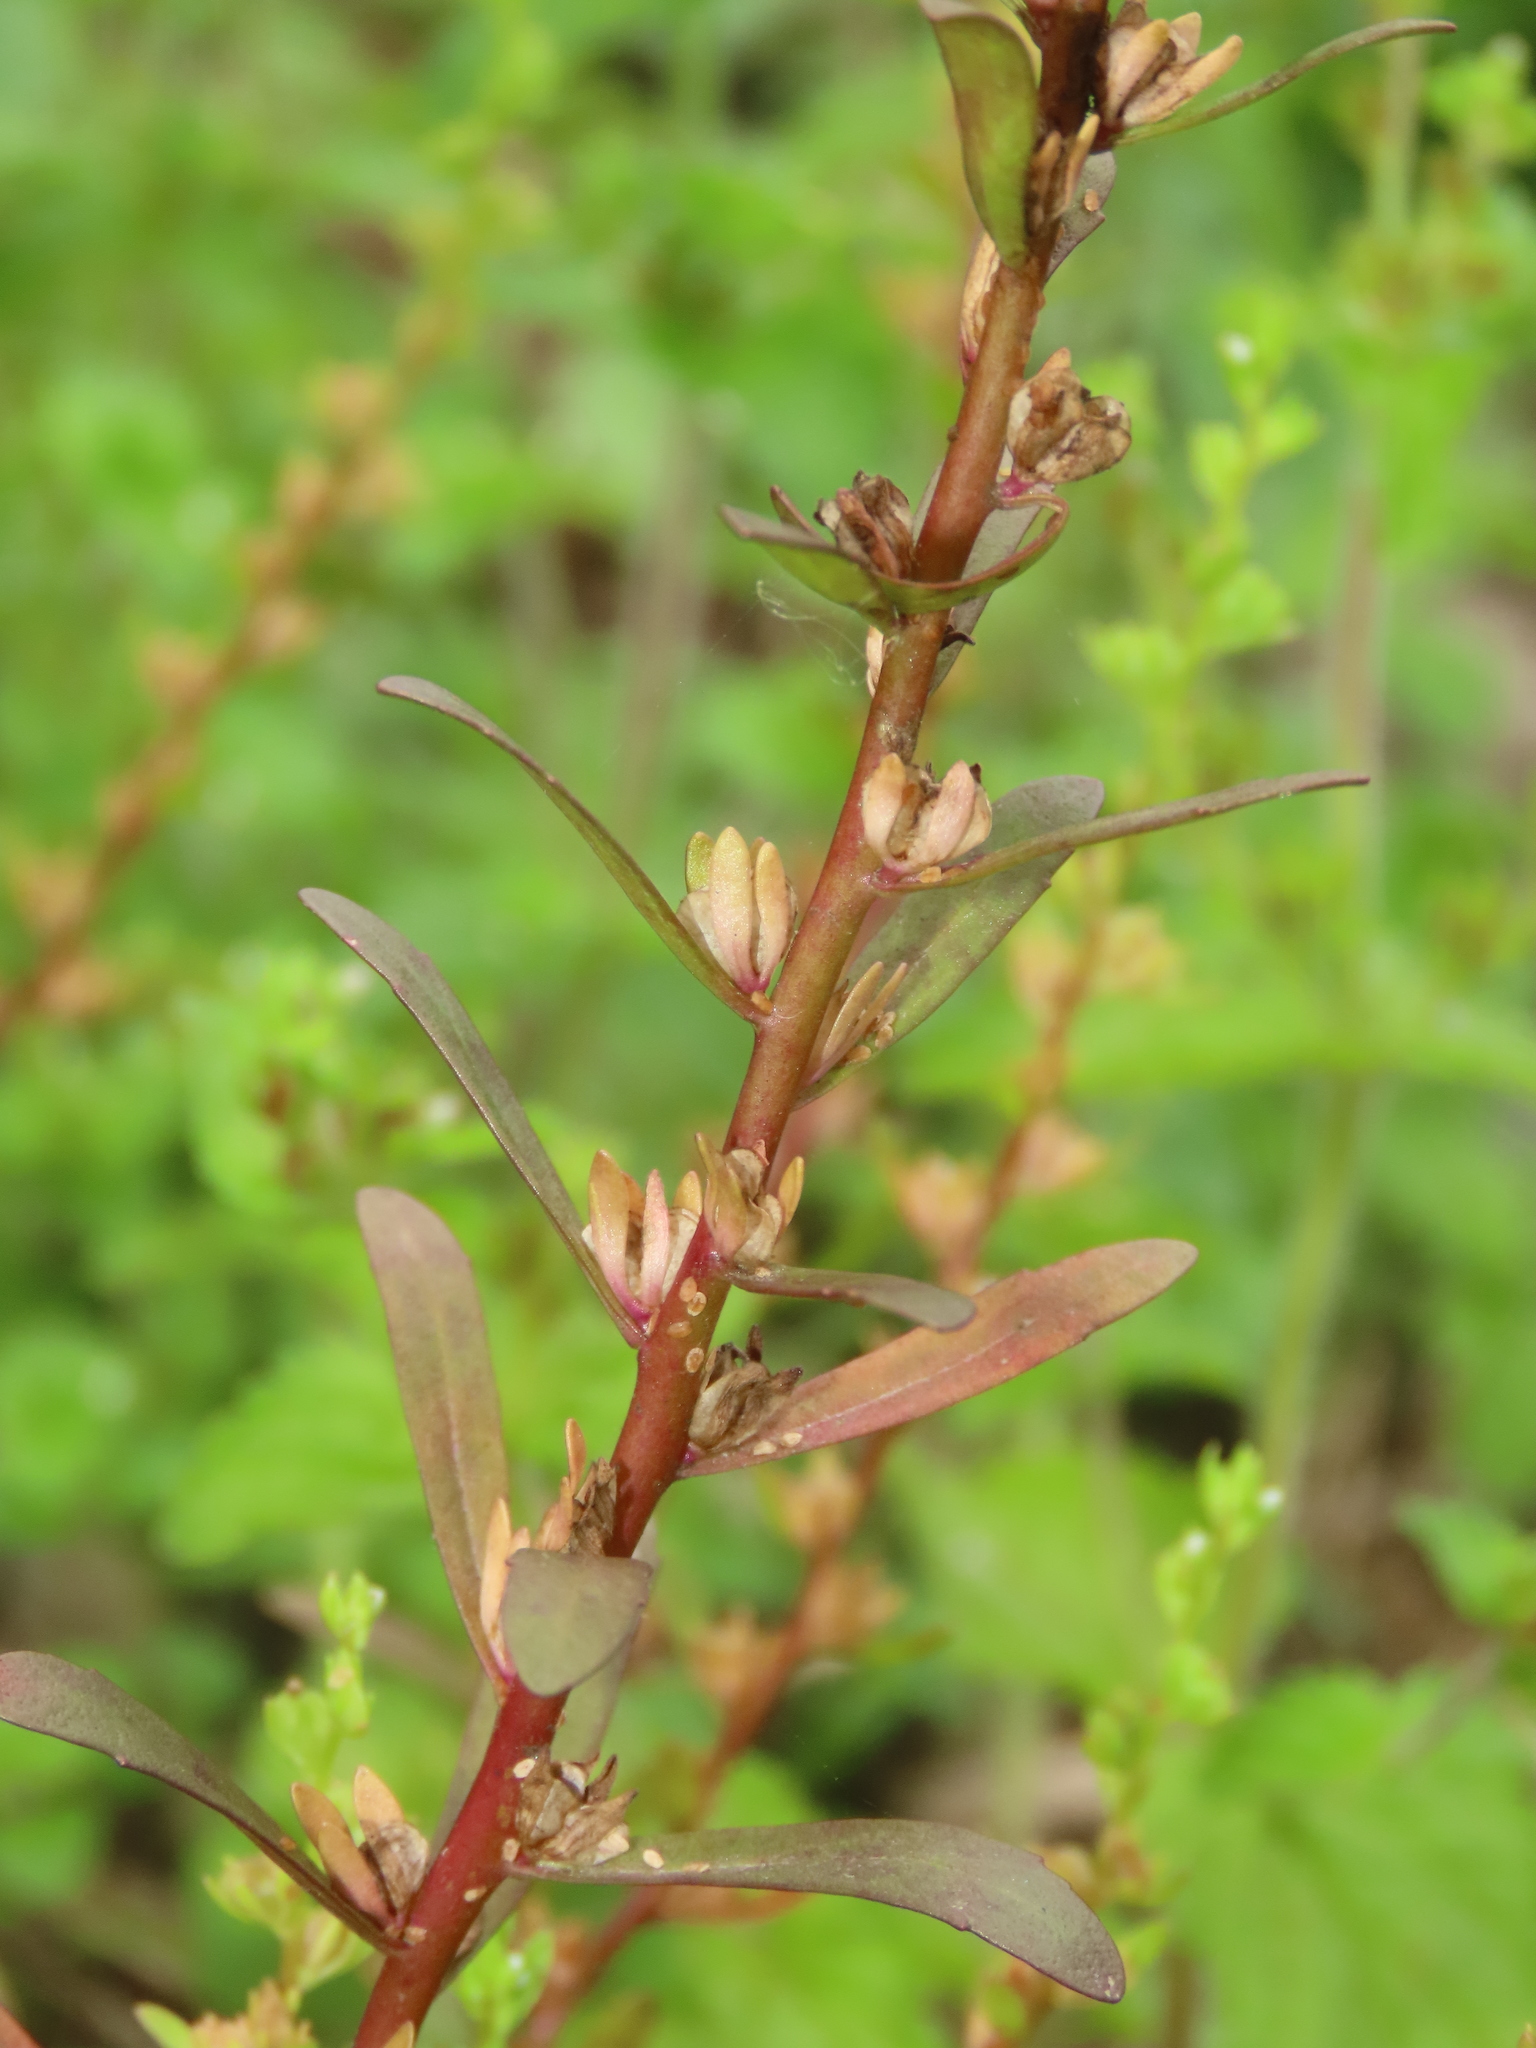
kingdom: Plantae
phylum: Tracheophyta
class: Magnoliopsida
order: Lamiales
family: Plantaginaceae
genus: Veronica
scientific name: Veronica peregrina
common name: Neckweed
